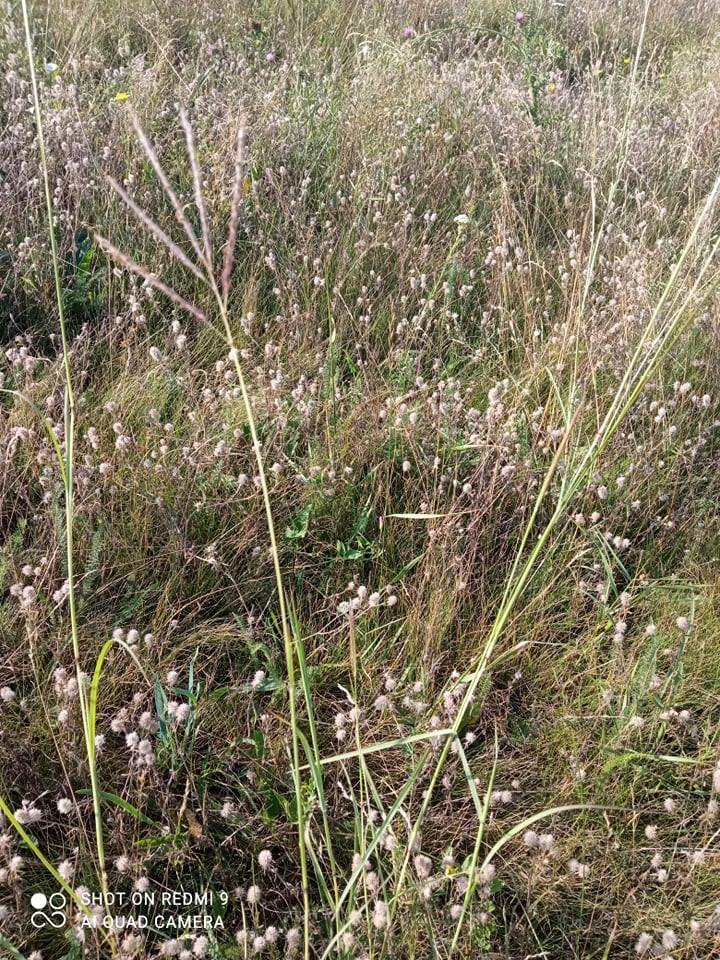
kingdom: Plantae
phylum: Tracheophyta
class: Liliopsida
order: Poales
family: Poaceae
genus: Digitaria
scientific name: Digitaria sanguinalis
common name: Hairy crabgrass
